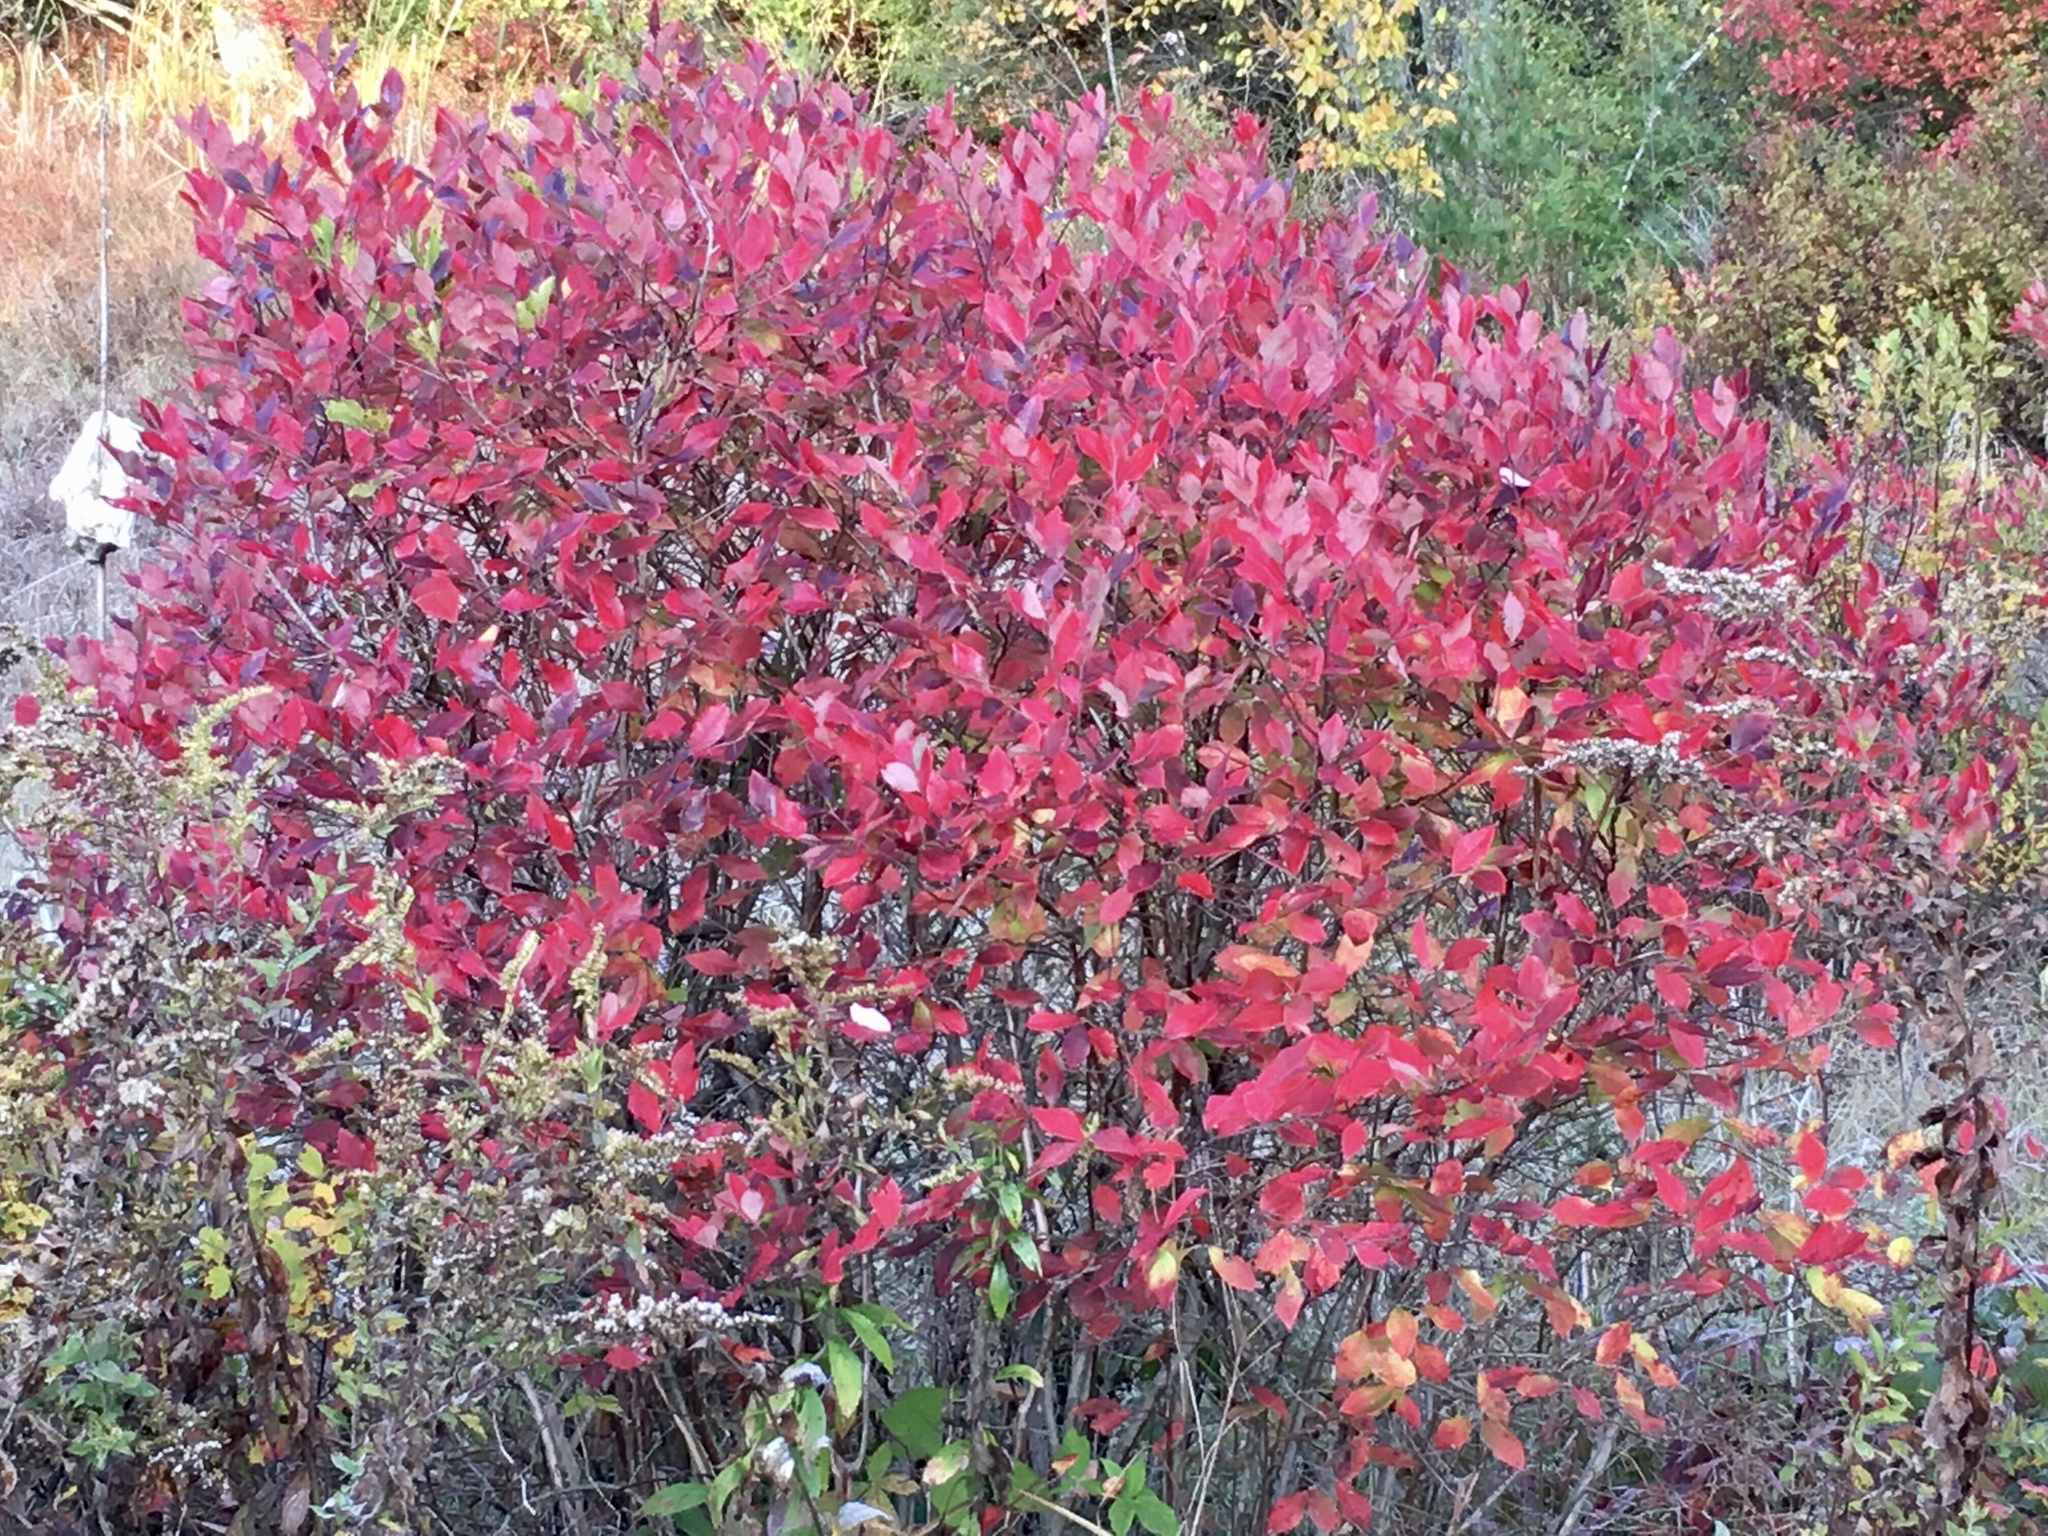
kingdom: Plantae
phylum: Tracheophyta
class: Magnoliopsida
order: Ericales
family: Ericaceae
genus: Vaccinium
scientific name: Vaccinium corymbosum
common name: Blueberry
